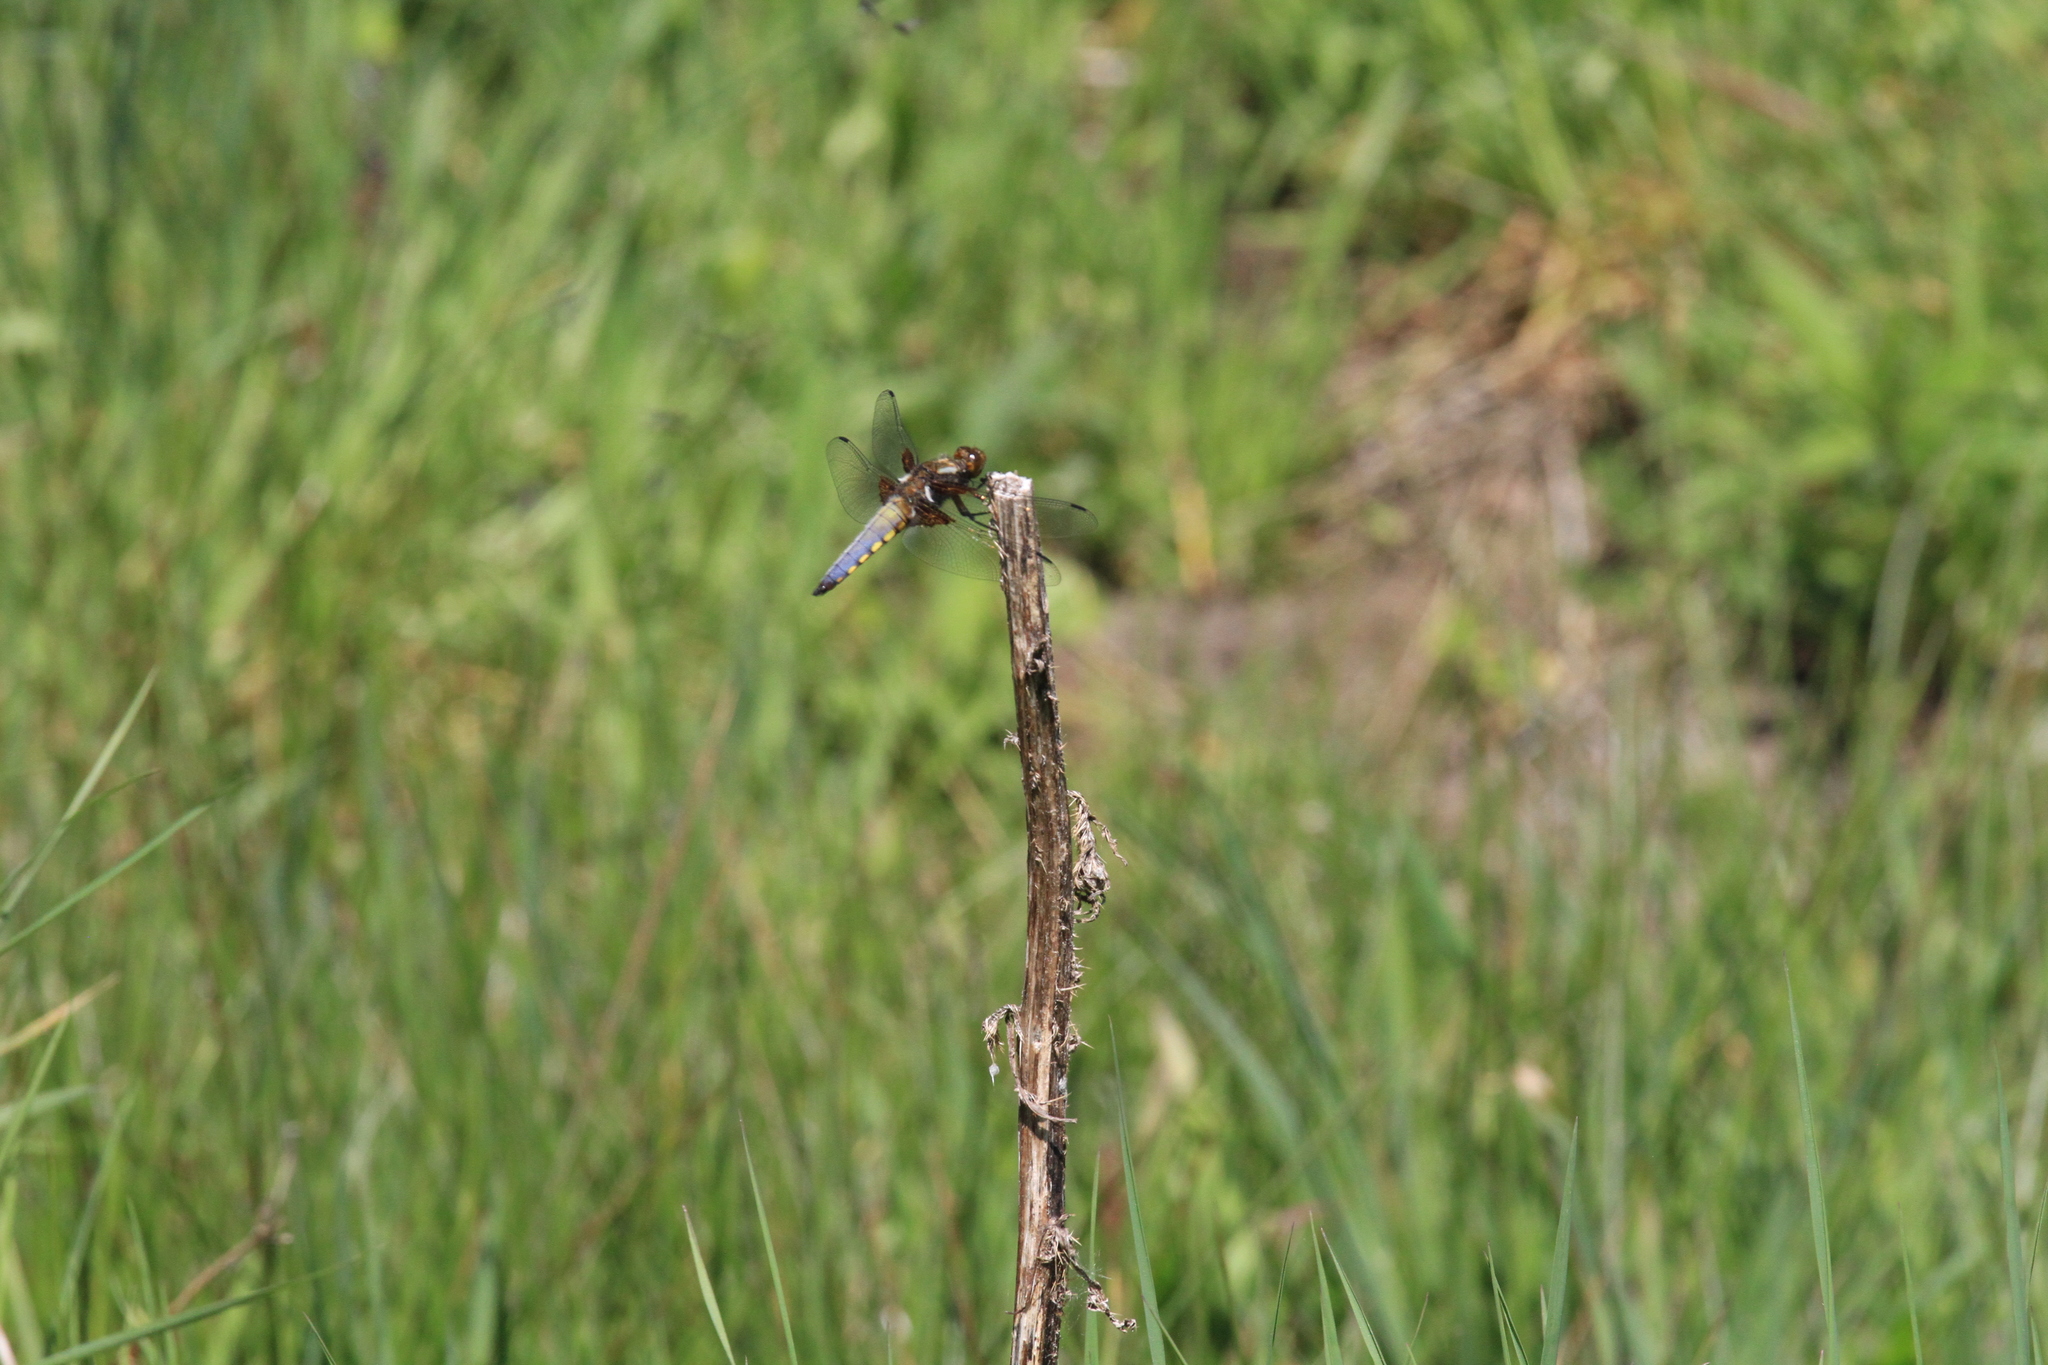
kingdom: Animalia
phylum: Arthropoda
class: Insecta
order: Odonata
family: Libellulidae
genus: Libellula
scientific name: Libellula depressa
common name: Broad-bodied chaser
